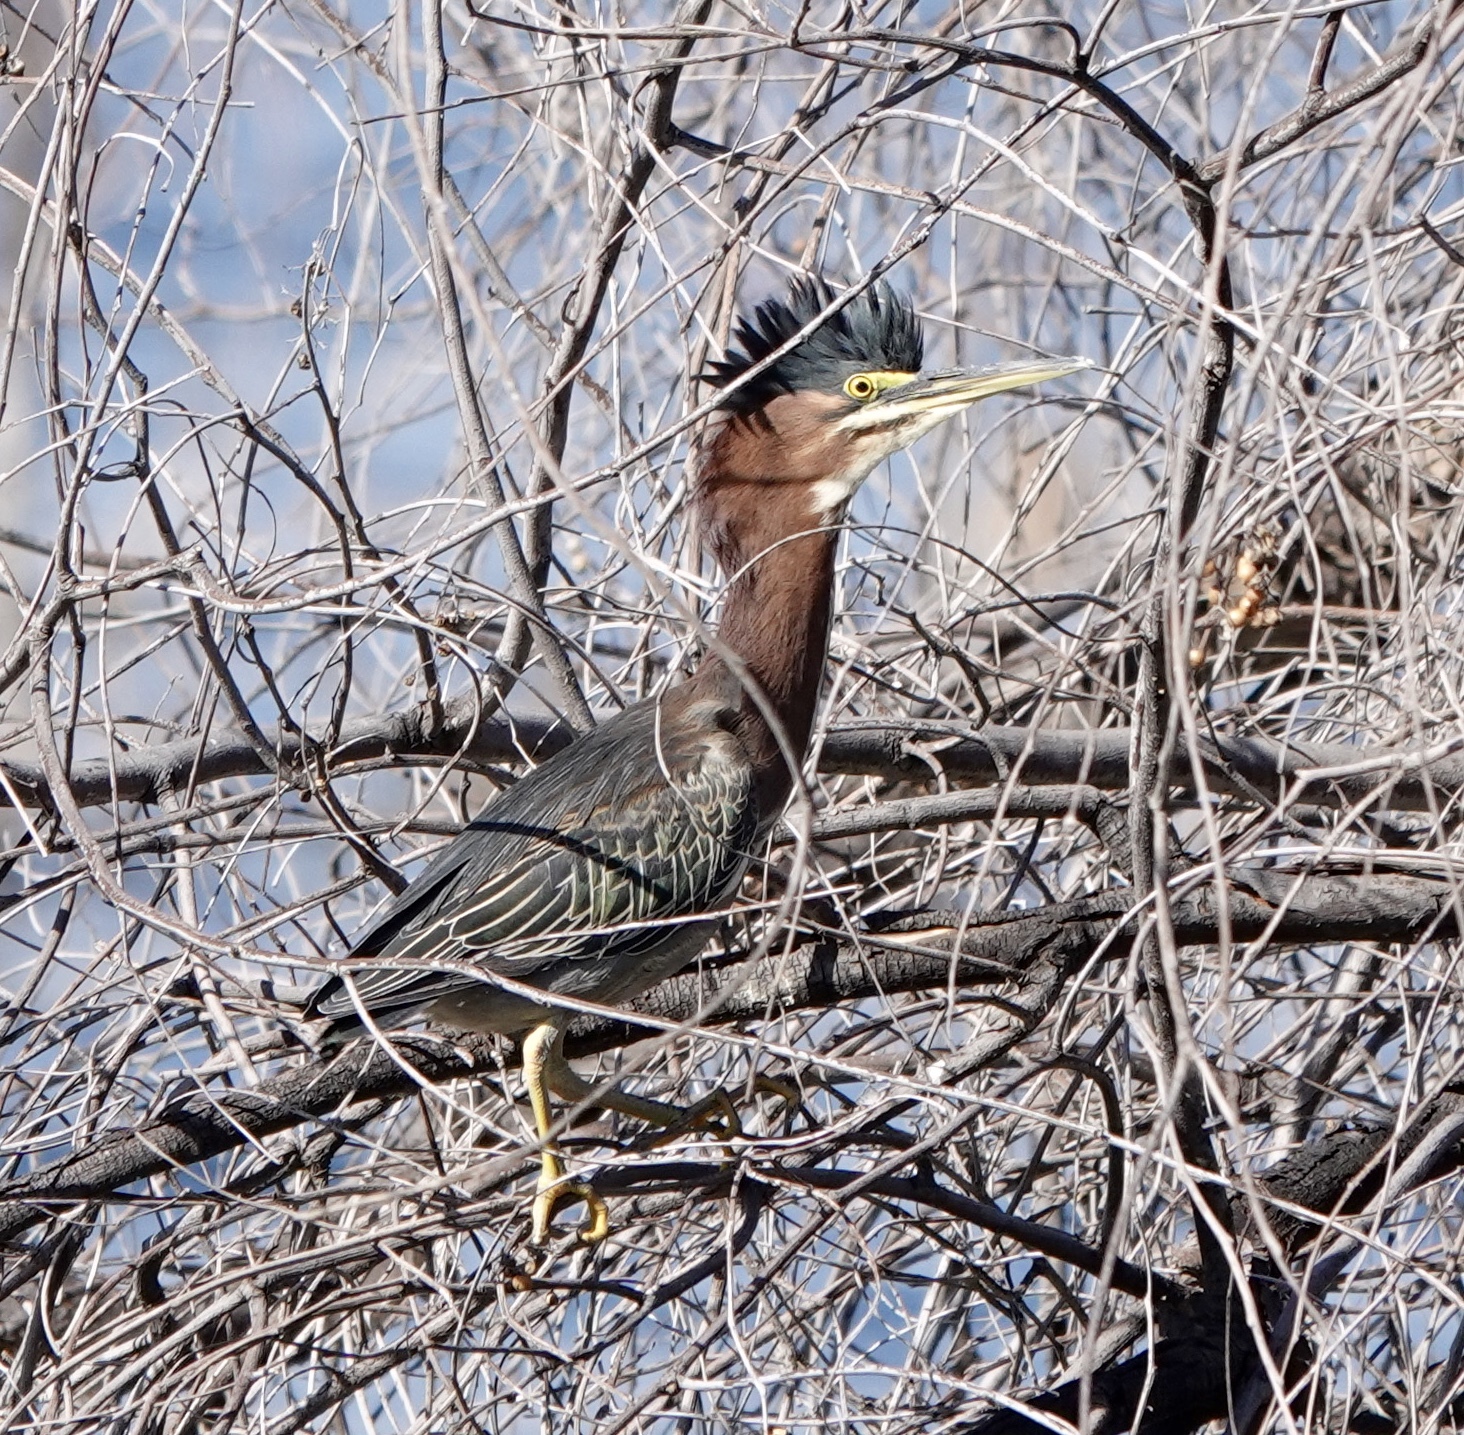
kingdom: Animalia
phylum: Chordata
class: Aves
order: Pelecaniformes
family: Ardeidae
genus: Butorides
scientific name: Butorides virescens
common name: Green heron
